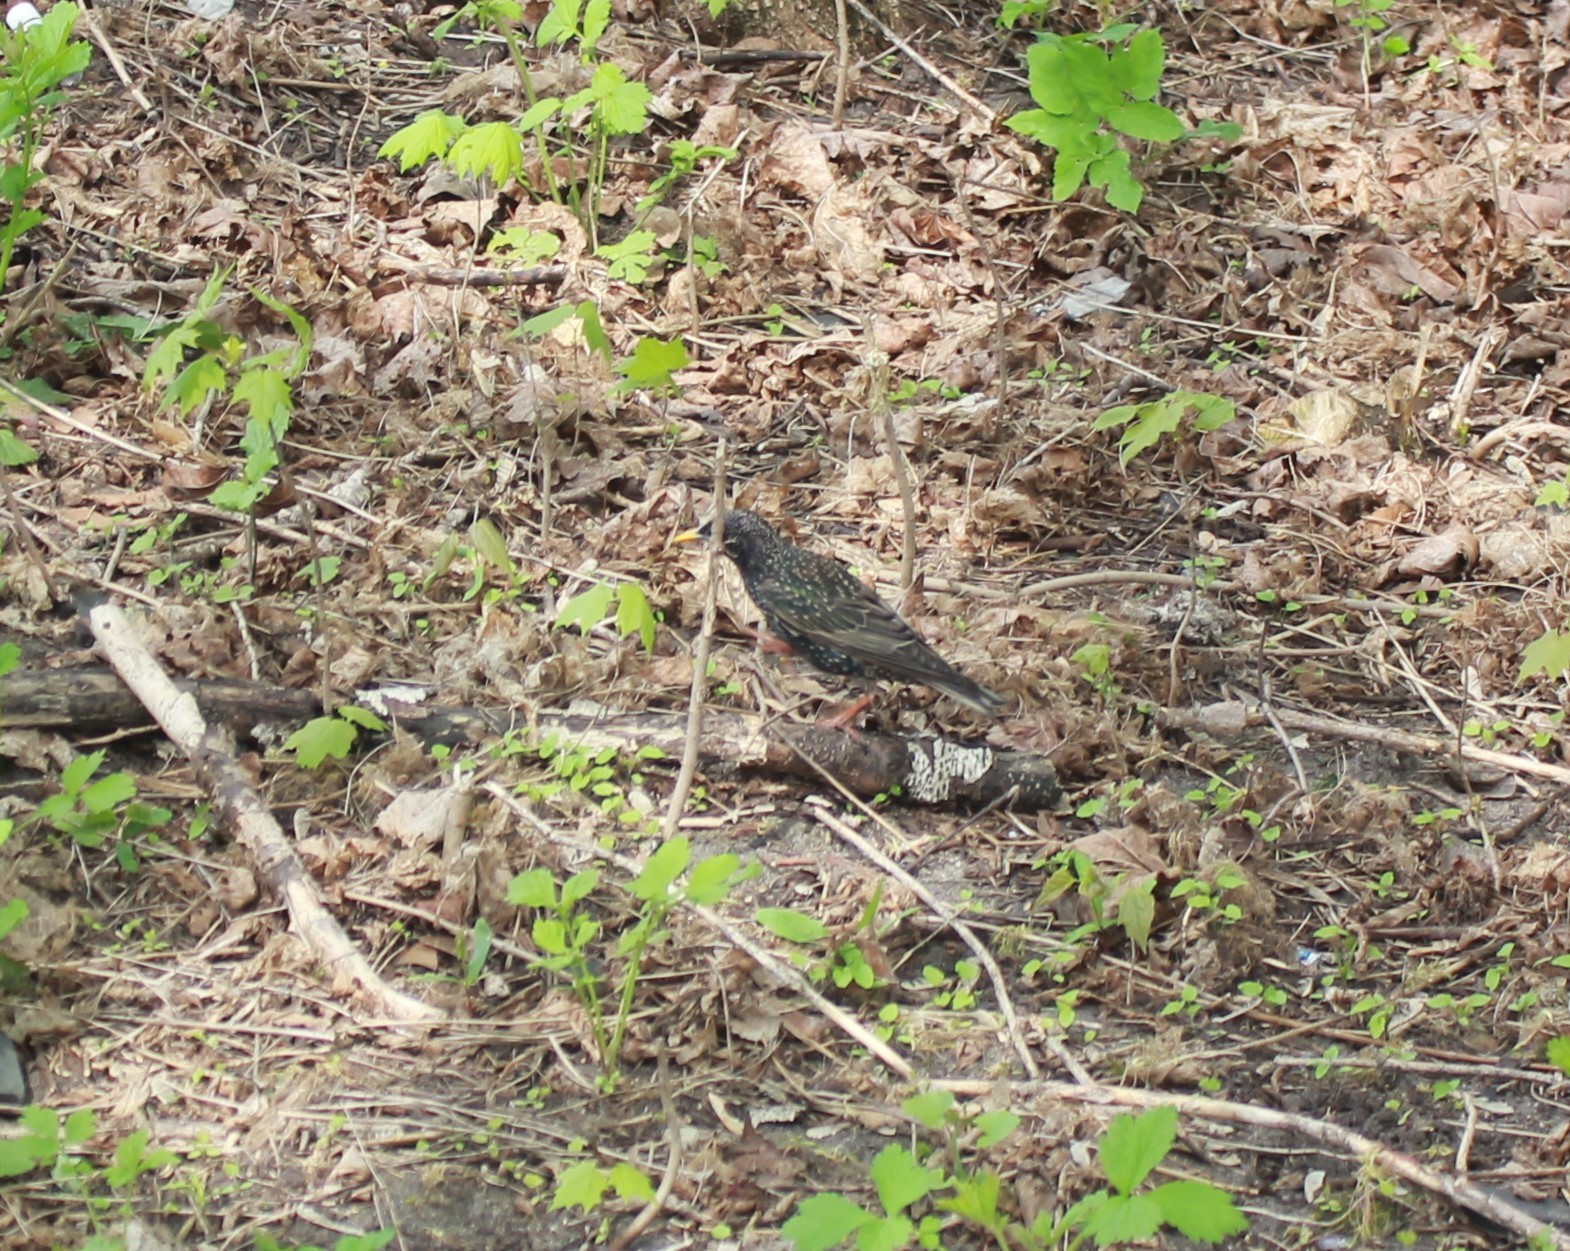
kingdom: Animalia
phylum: Chordata
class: Aves
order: Passeriformes
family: Sturnidae
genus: Sturnus
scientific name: Sturnus vulgaris
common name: Common starling
